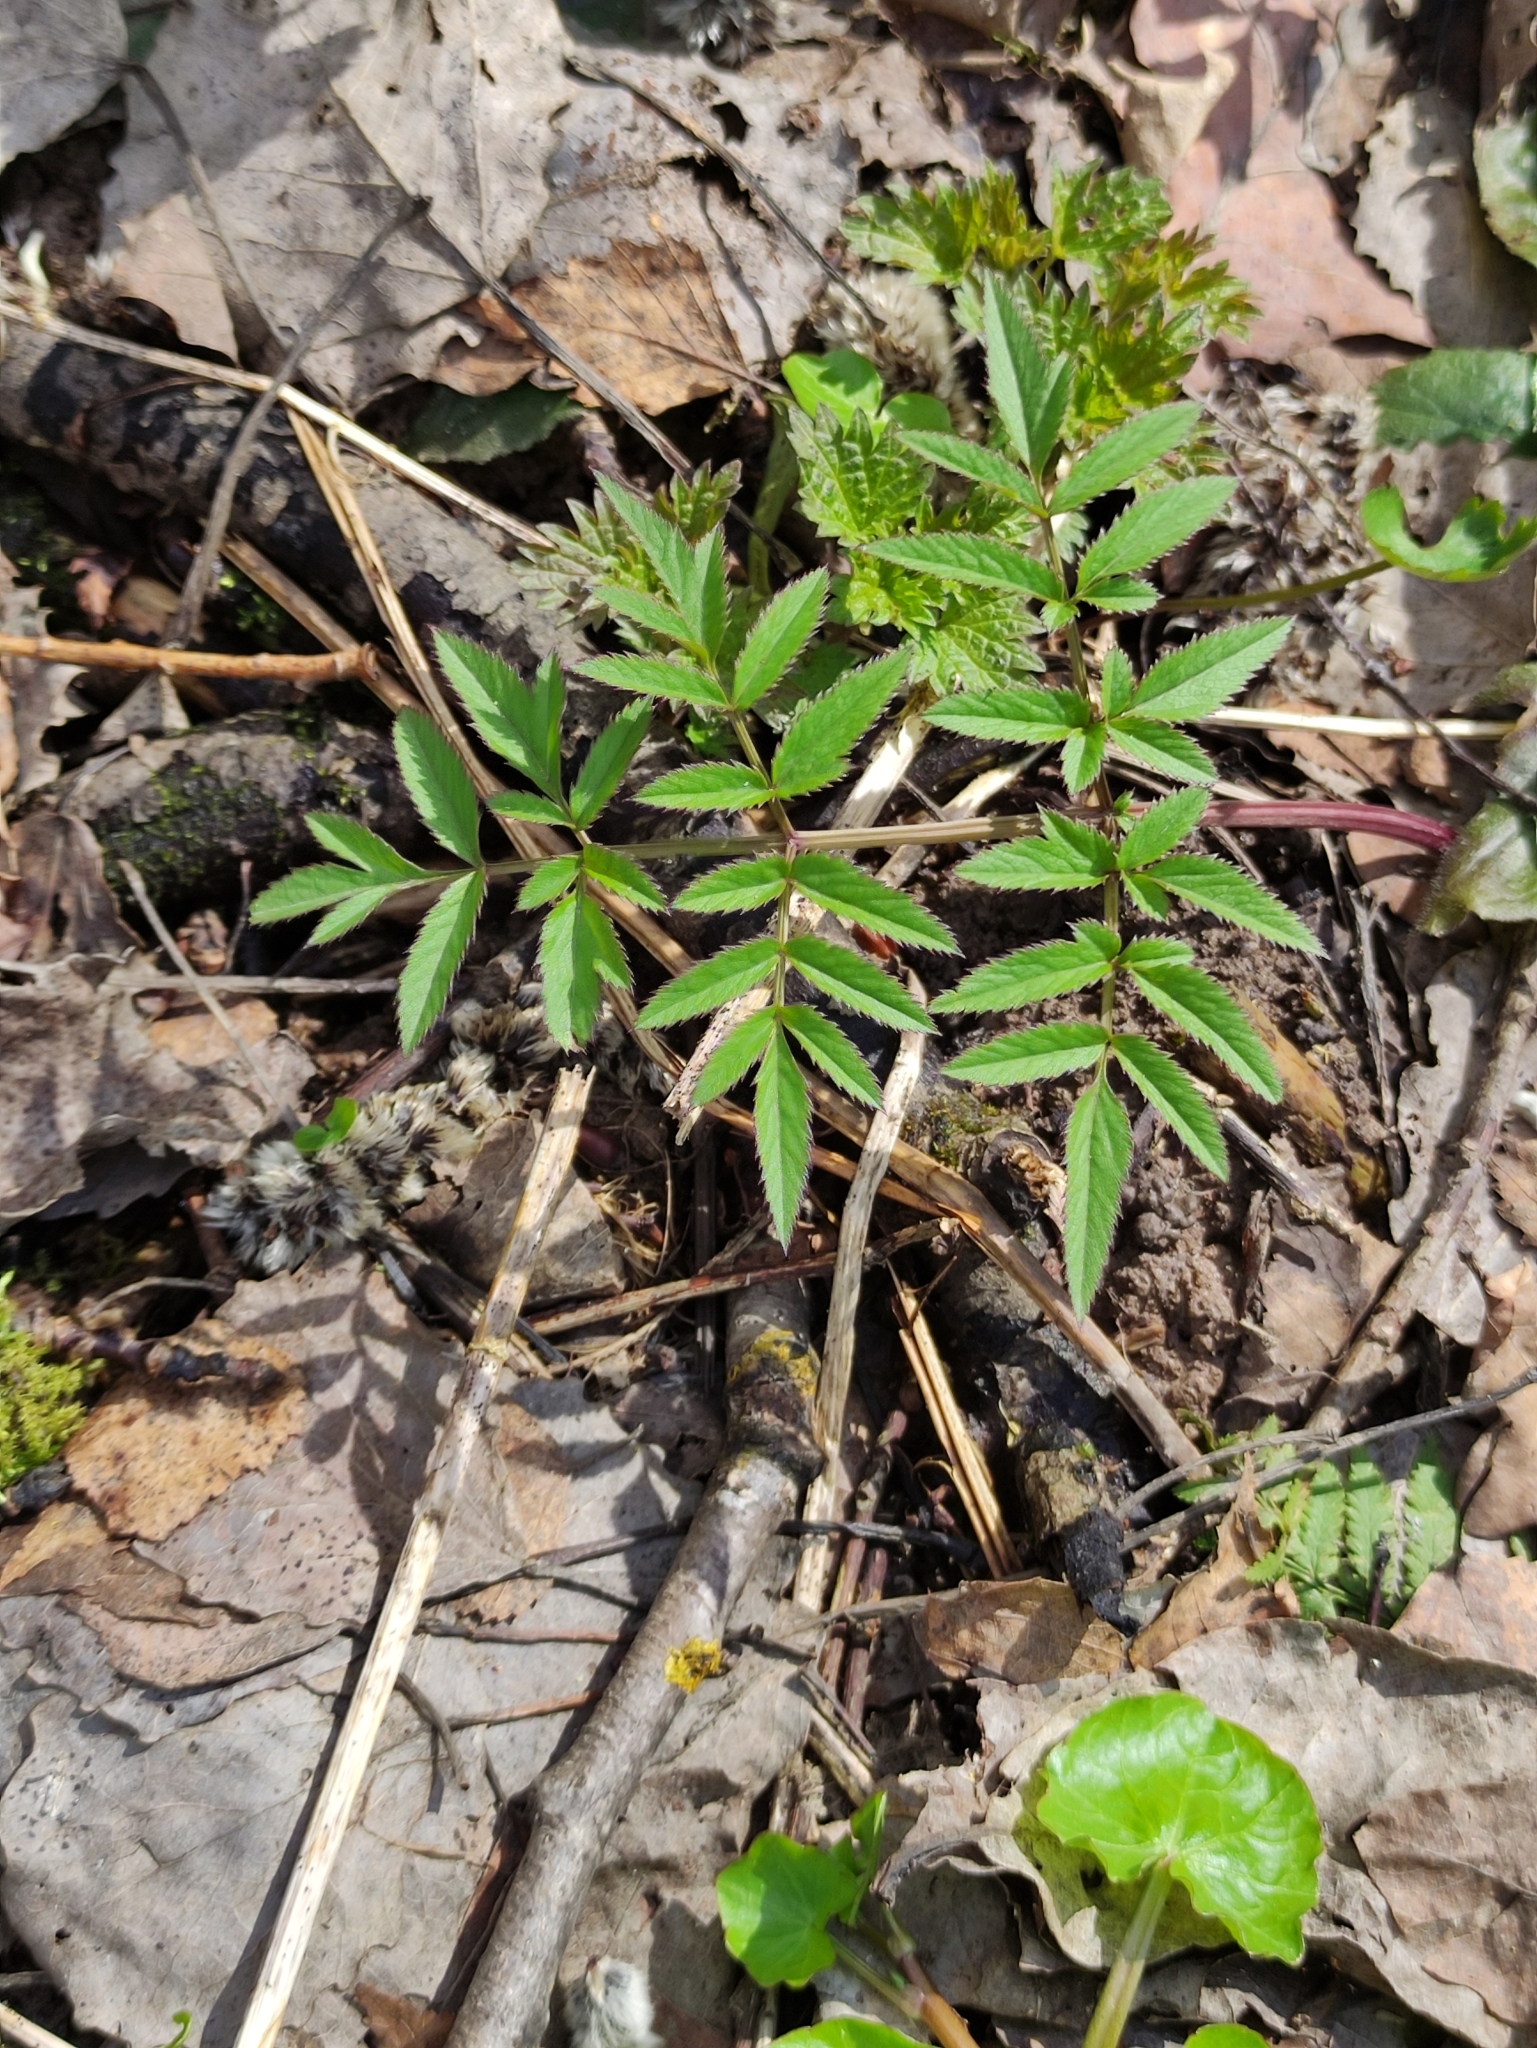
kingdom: Plantae
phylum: Tracheophyta
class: Magnoliopsida
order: Apiales
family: Apiaceae
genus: Angelica
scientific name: Angelica sylvestris
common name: Wild angelica
